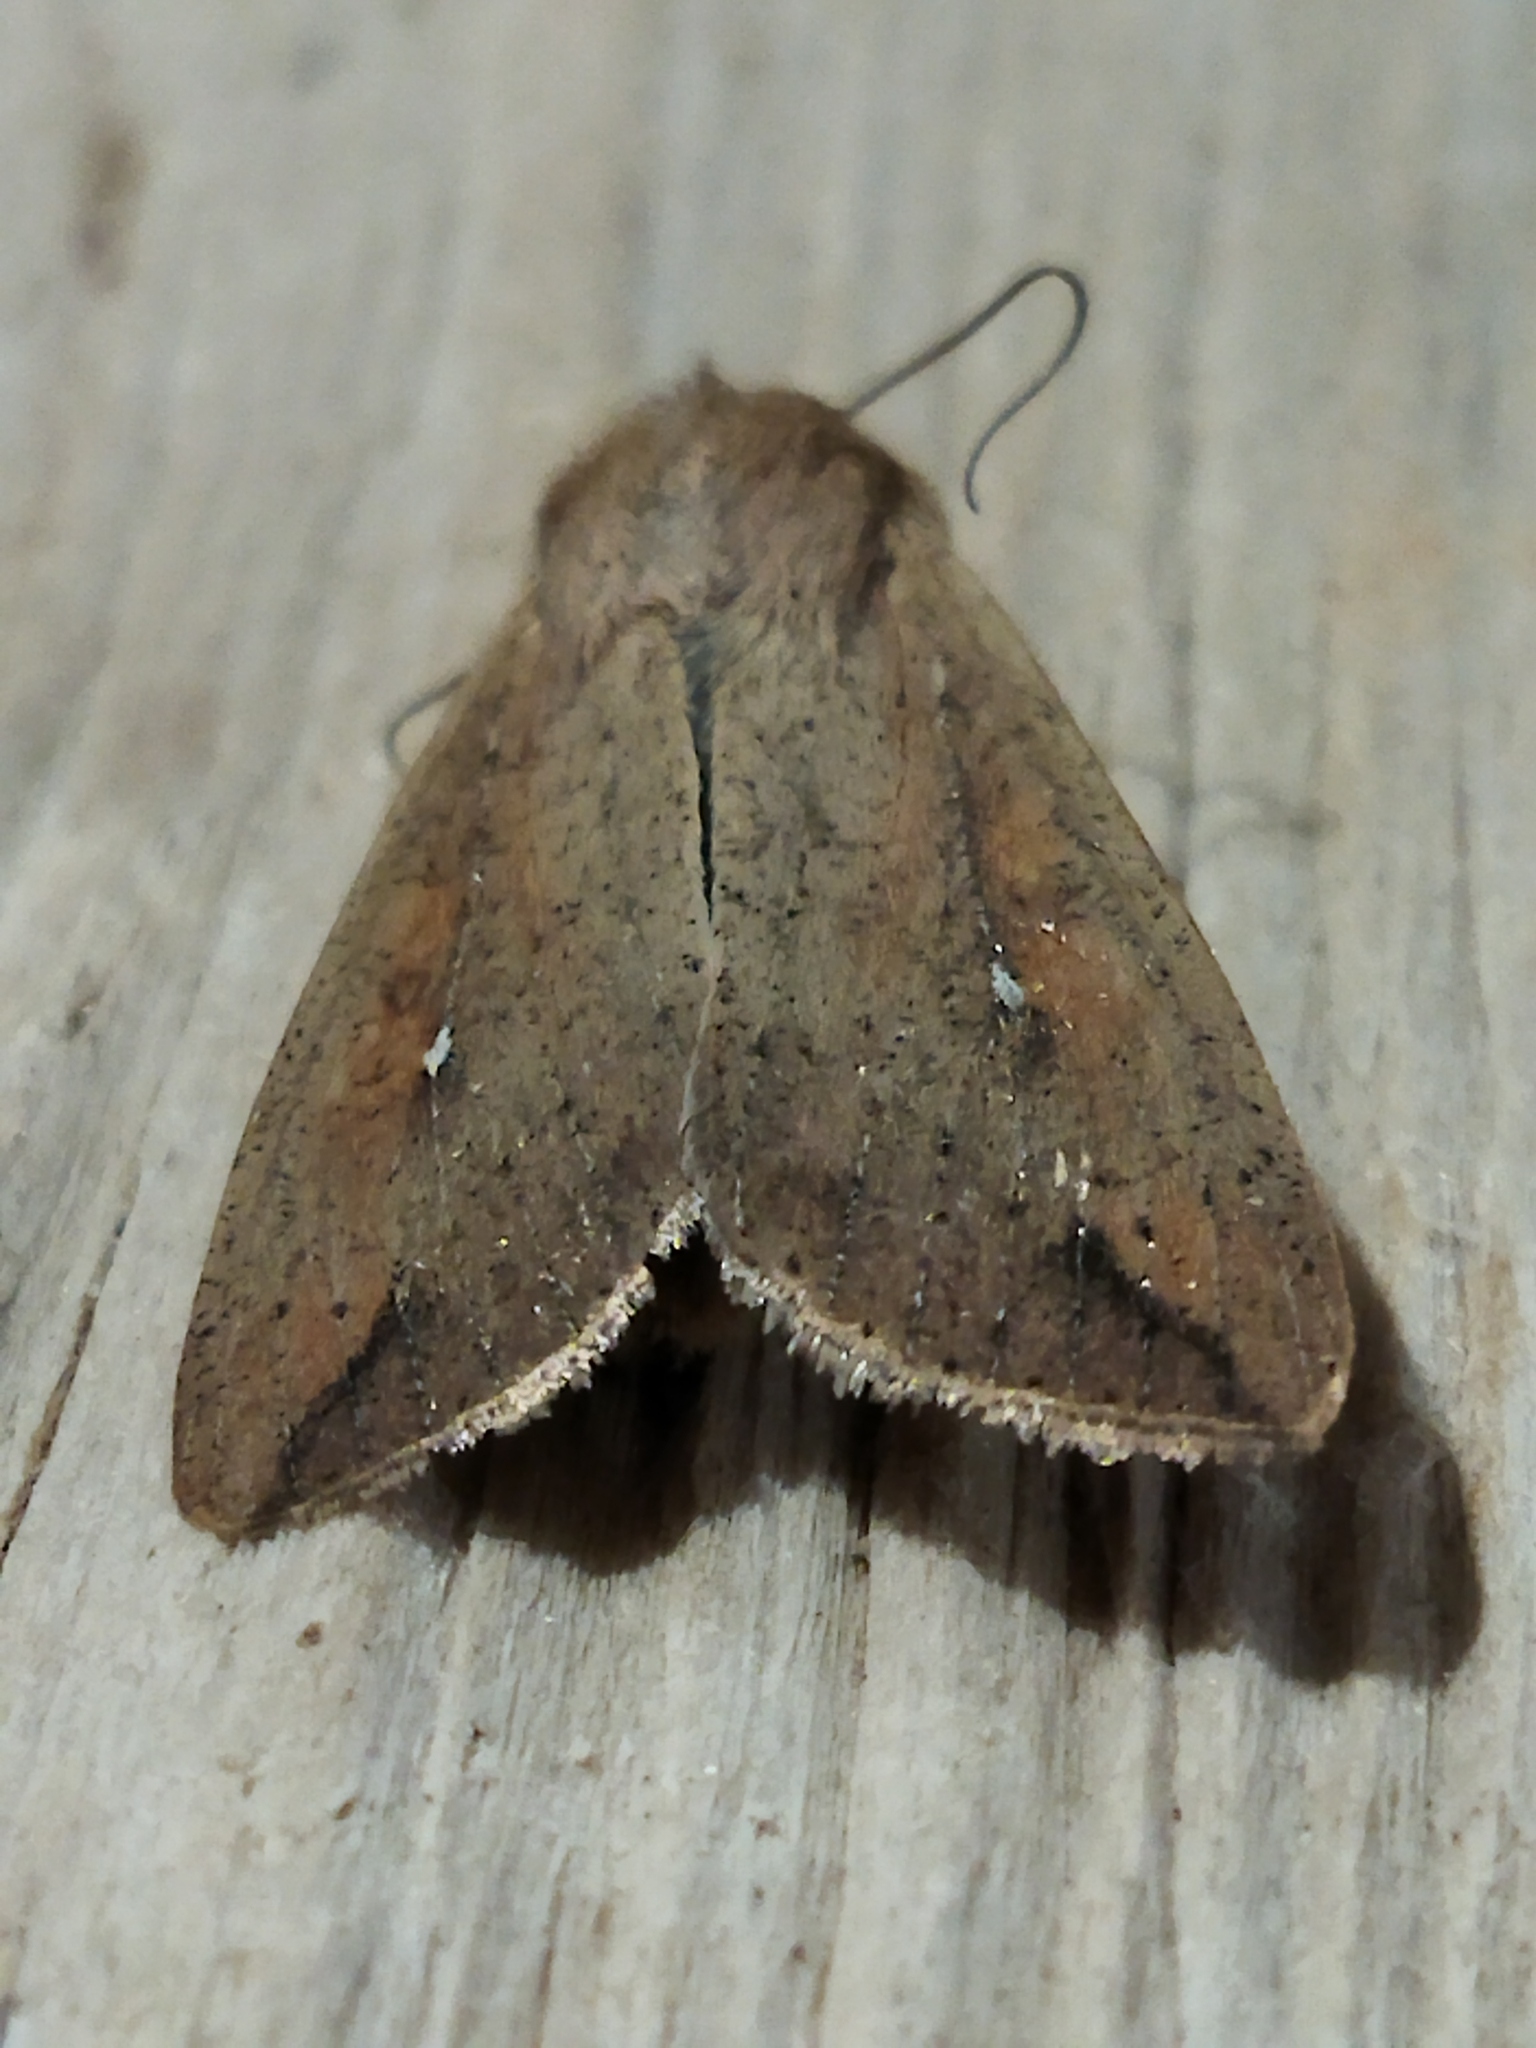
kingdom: Animalia
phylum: Arthropoda
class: Insecta
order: Lepidoptera
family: Noctuidae
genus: Mythimna
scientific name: Mythimna unipuncta
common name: White-speck
